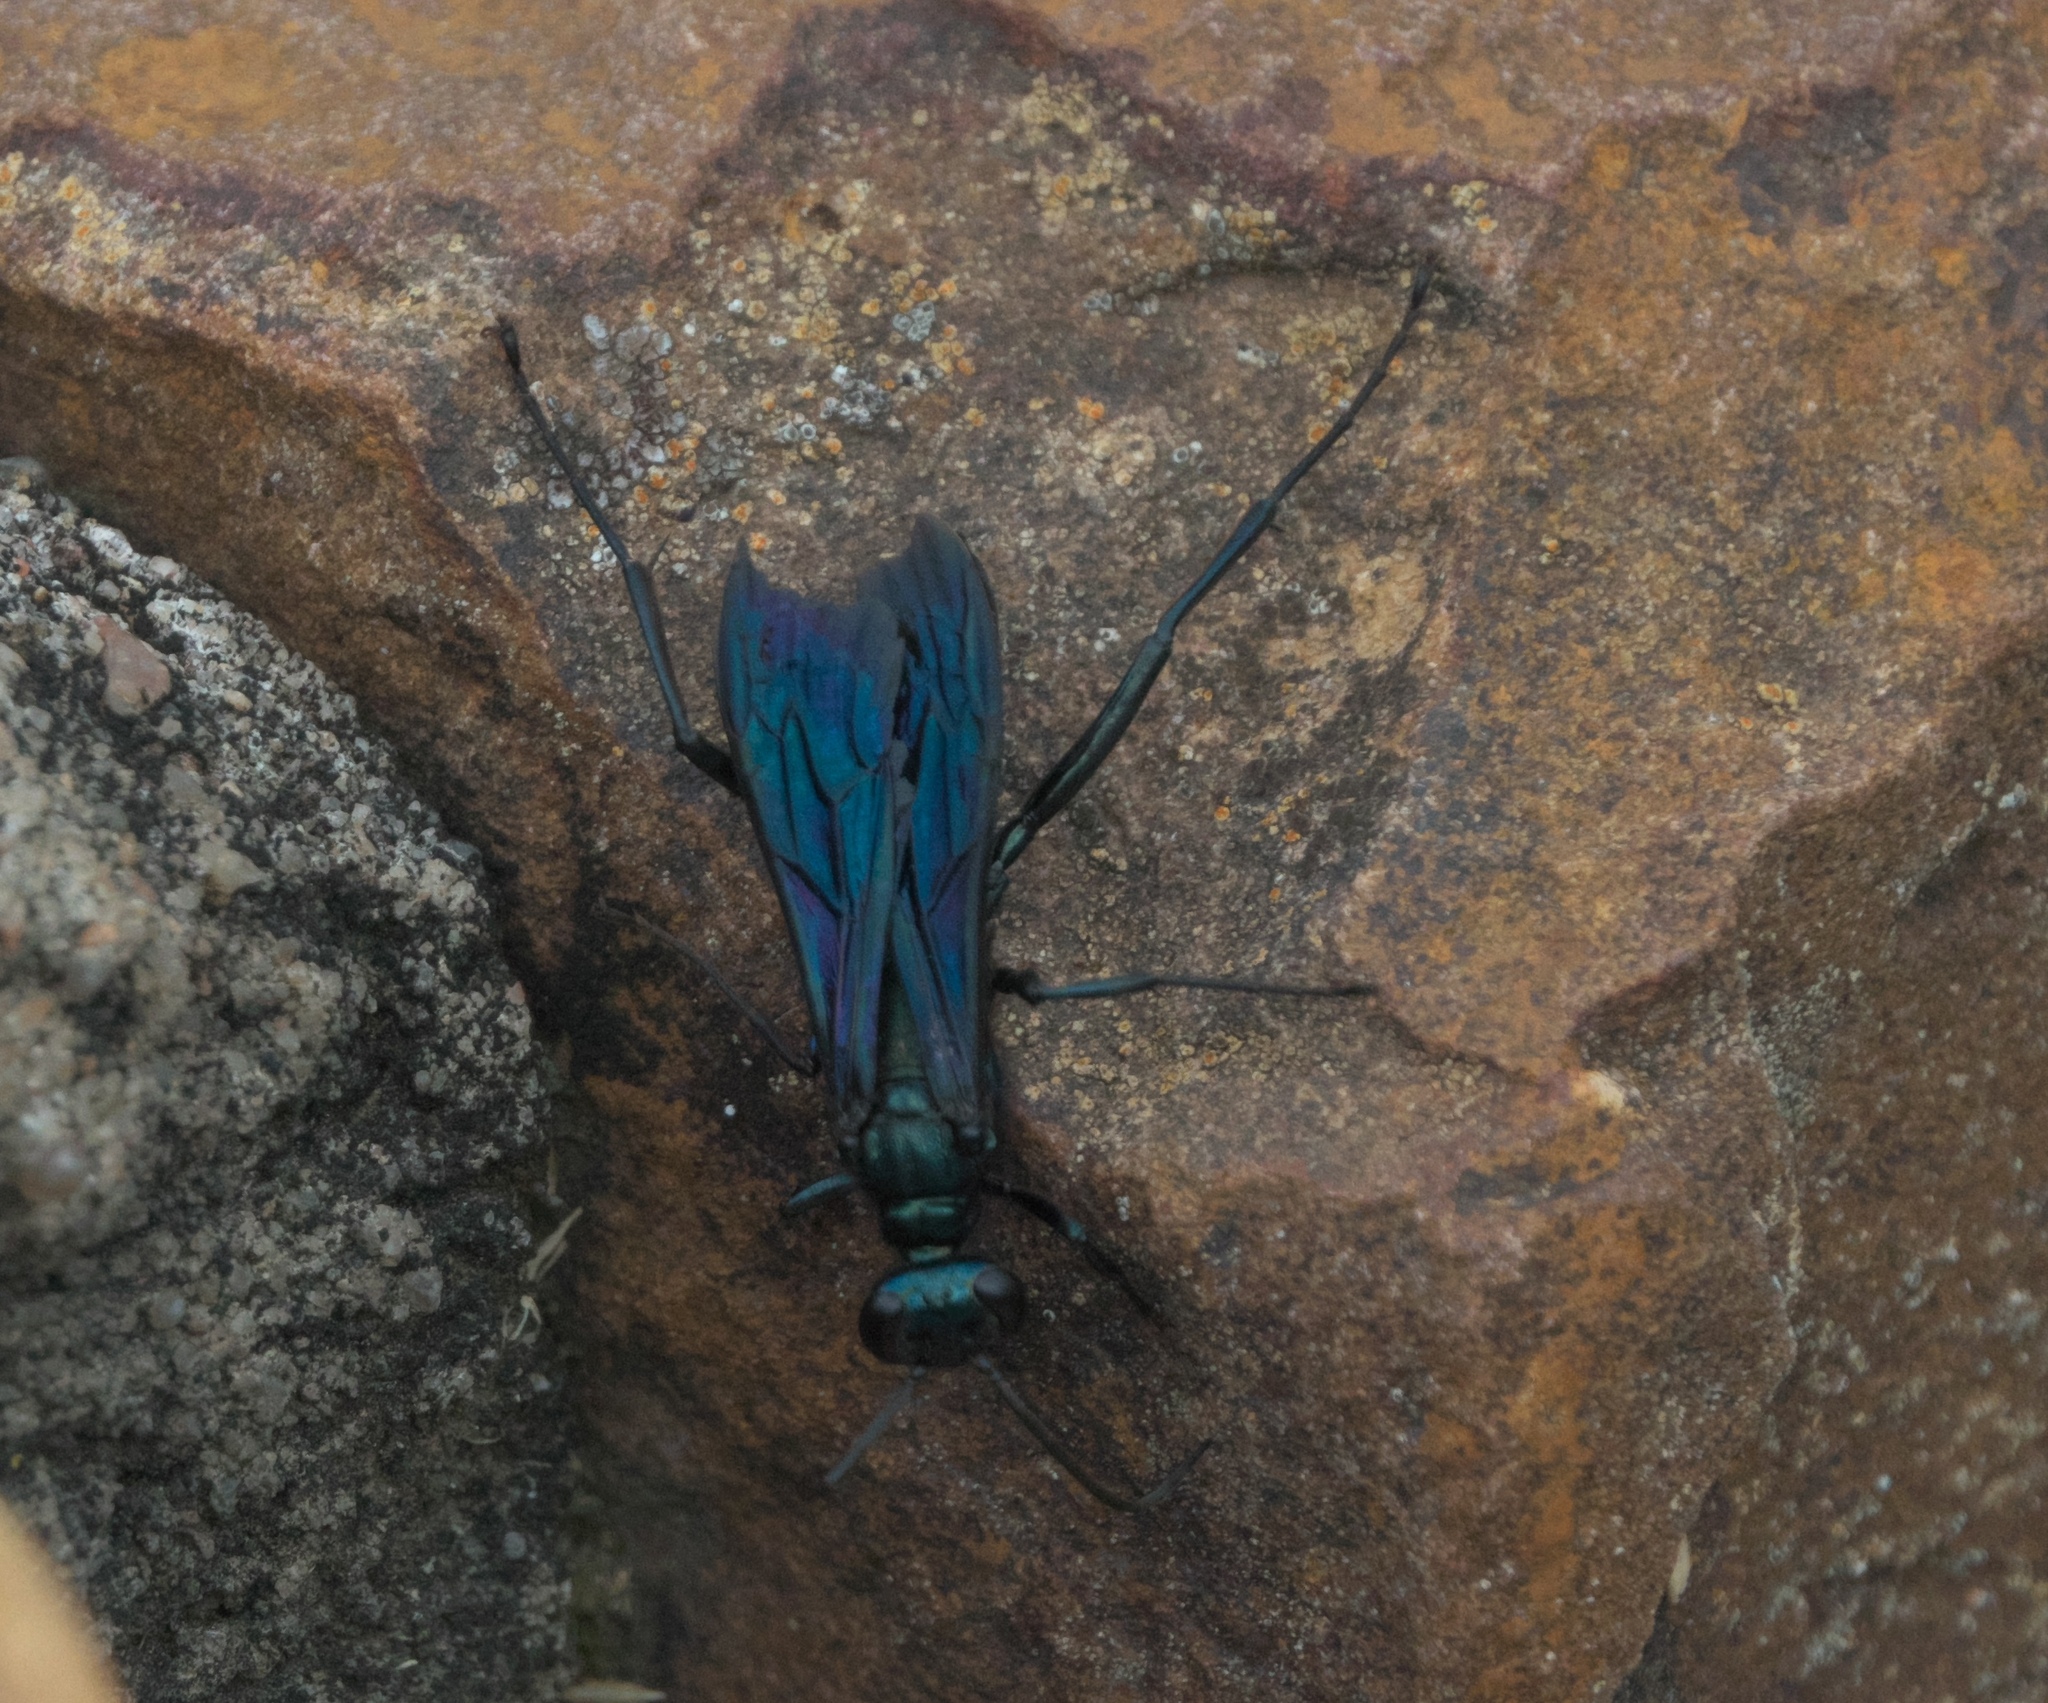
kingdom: Animalia
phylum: Arthropoda
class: Insecta
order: Hymenoptera
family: Sphecidae
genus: Chalybion
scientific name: Chalybion californicum
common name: Mud dauber
